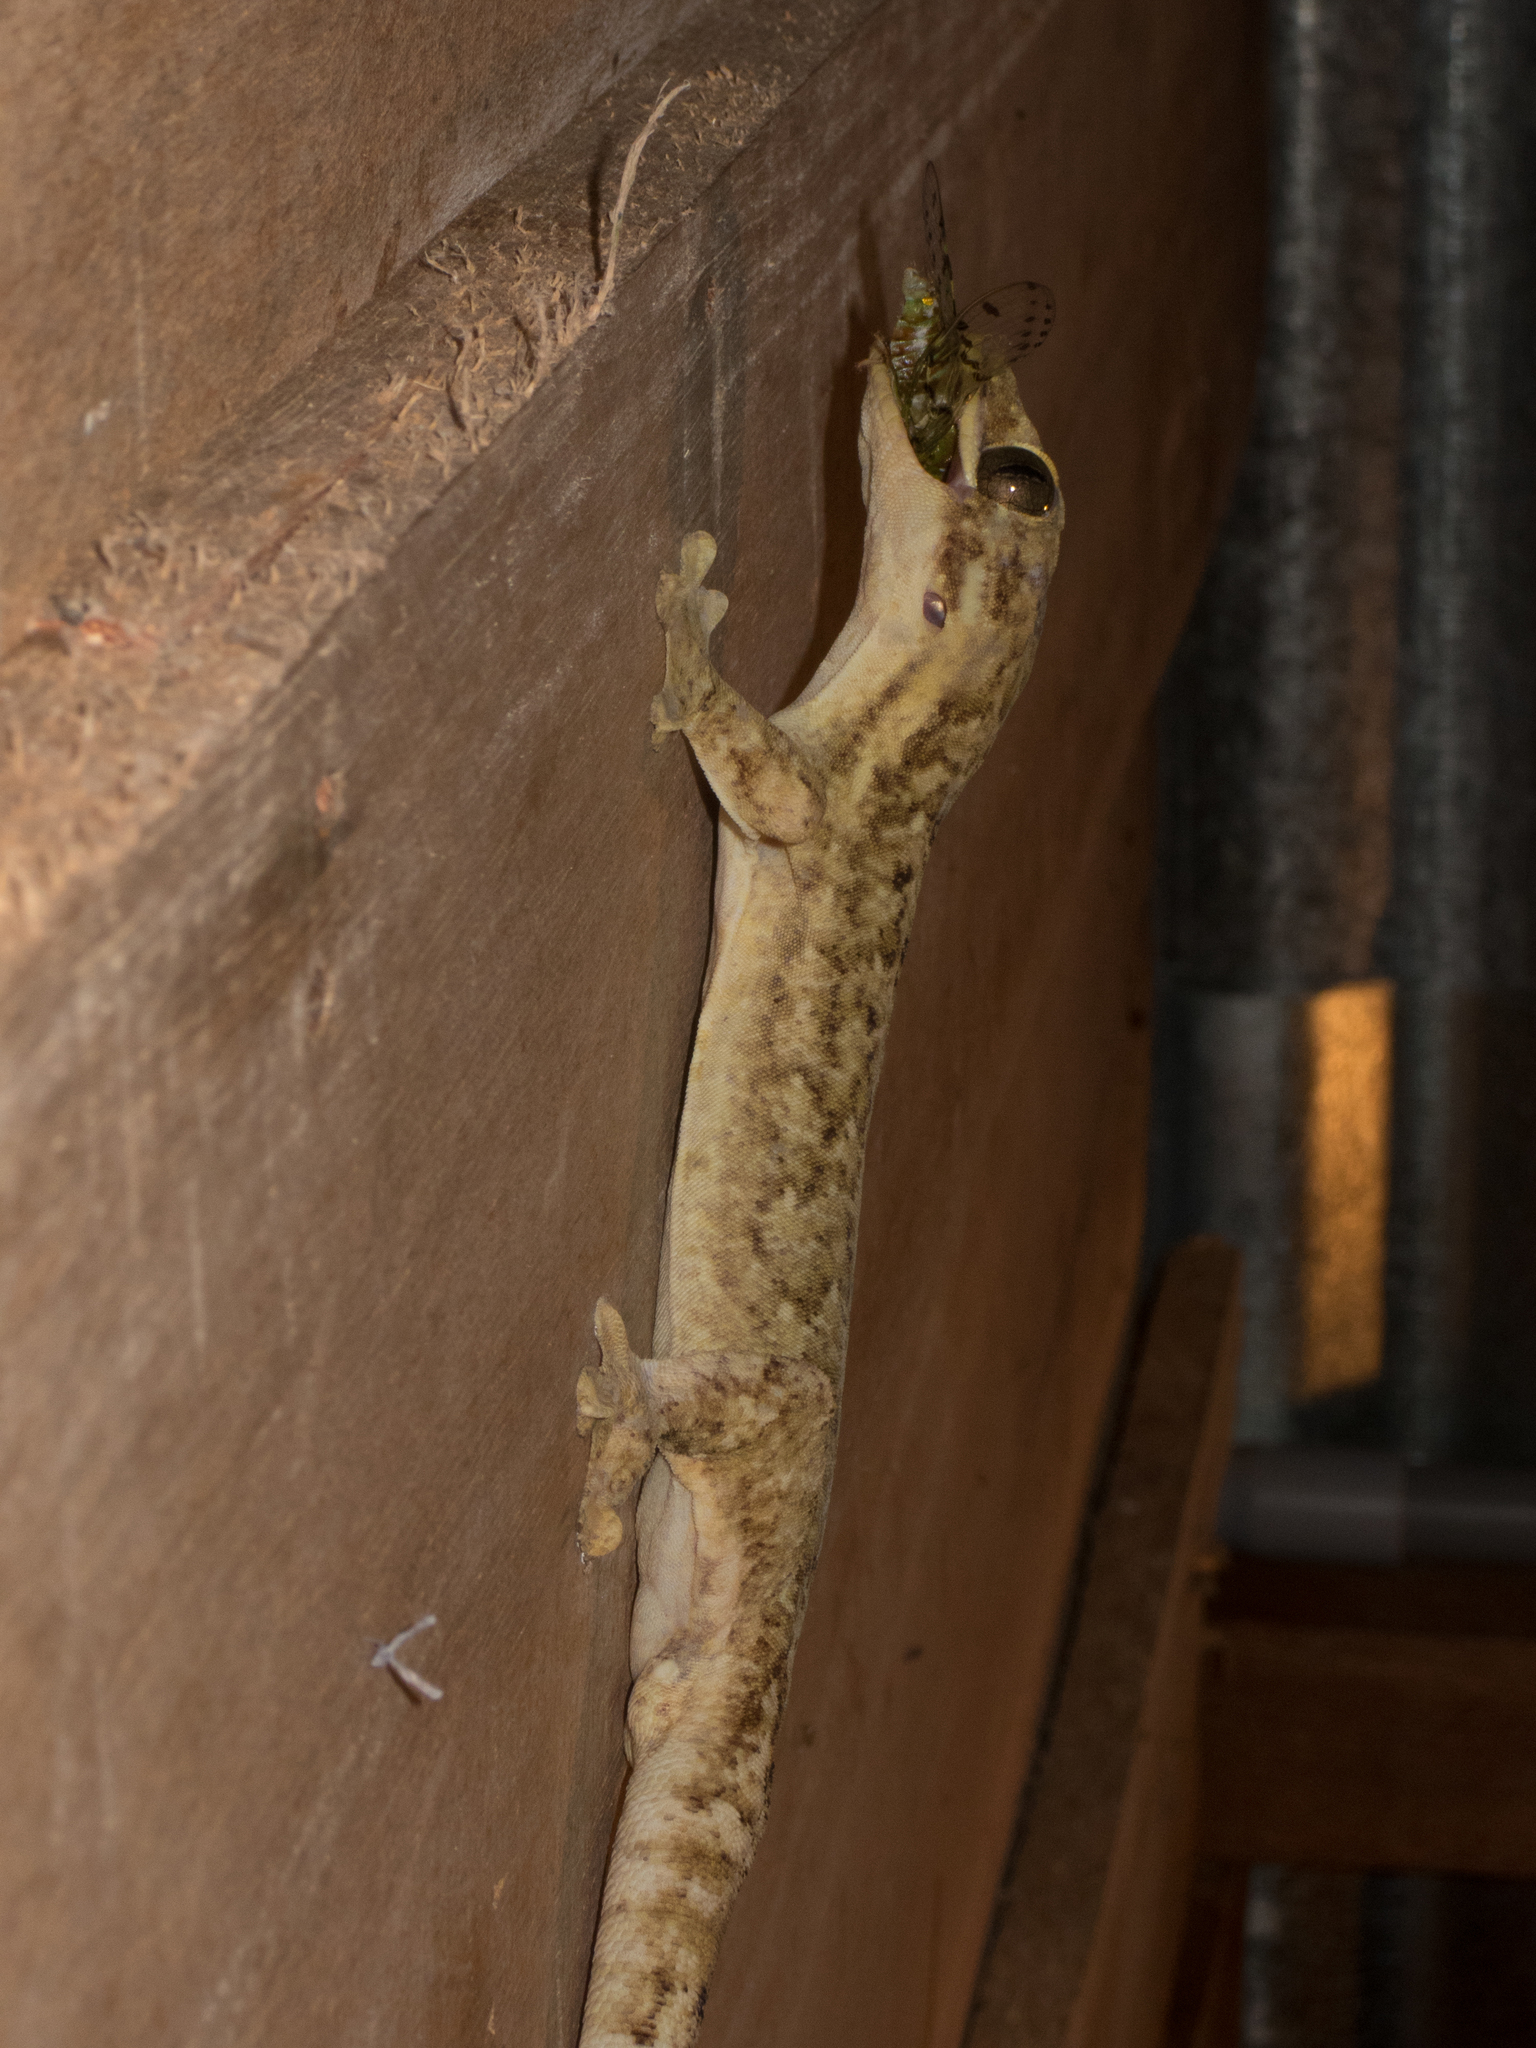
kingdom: Animalia
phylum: Chordata
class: Squamata
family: Phyllodactylidae
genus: Thecadactylus
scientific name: Thecadactylus rapicauda
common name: Turnip-tailed gecko
